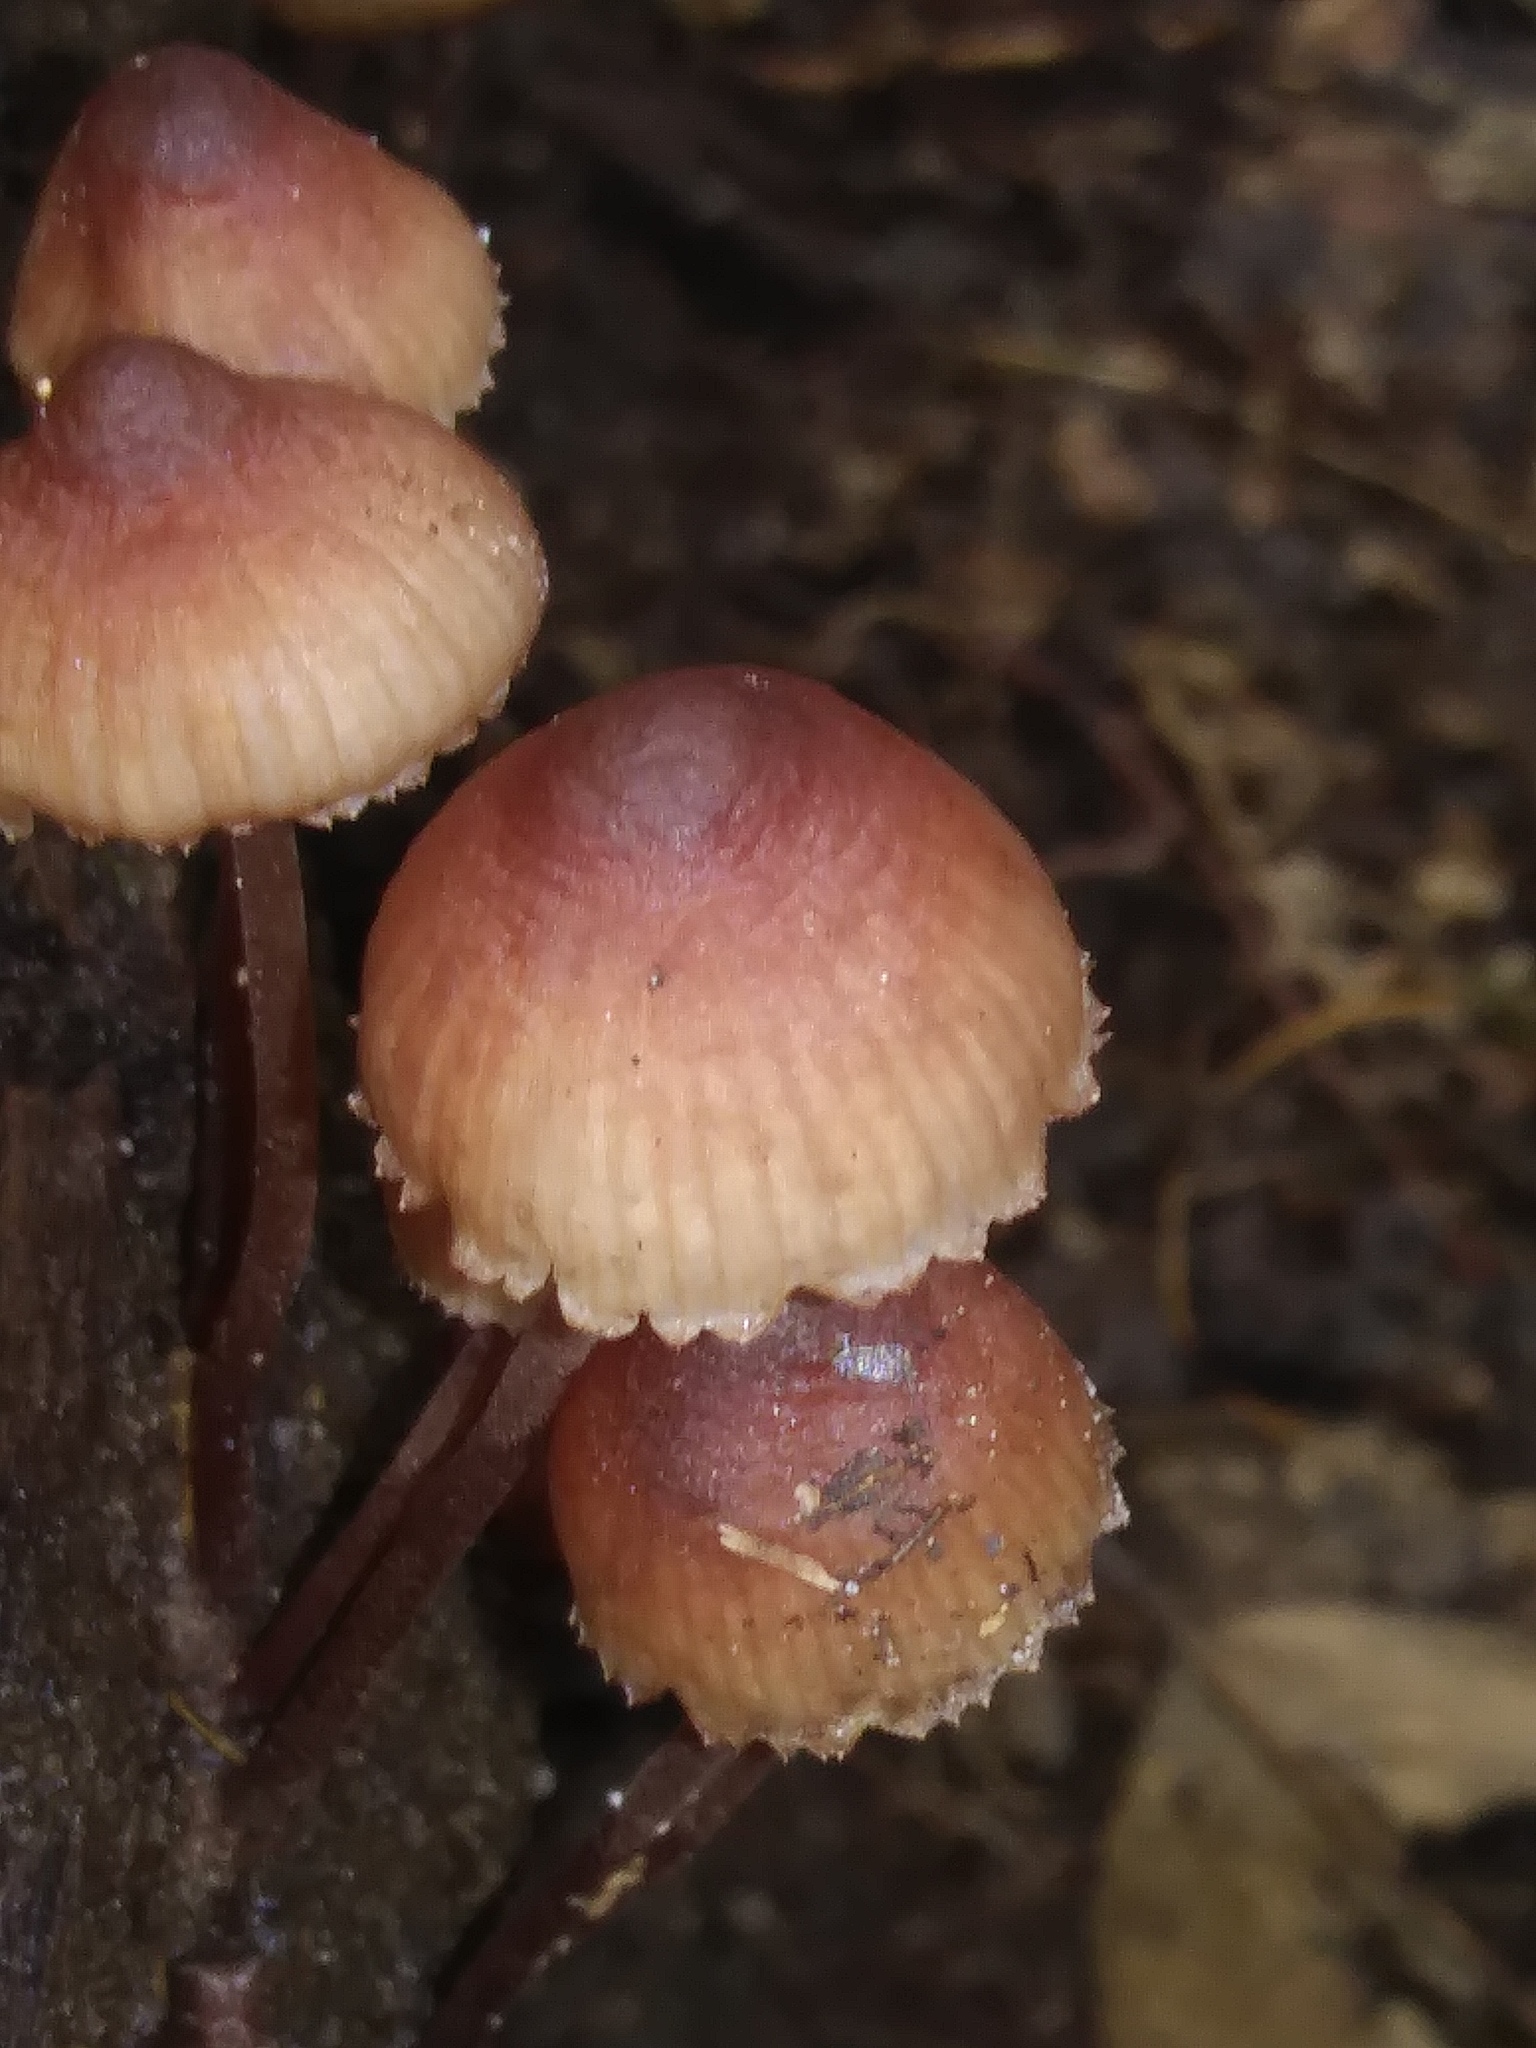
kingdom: Fungi
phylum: Basidiomycota
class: Agaricomycetes
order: Agaricales
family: Mycenaceae
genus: Mycena
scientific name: Mycena haematopus
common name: Burgundydrop bonnet
